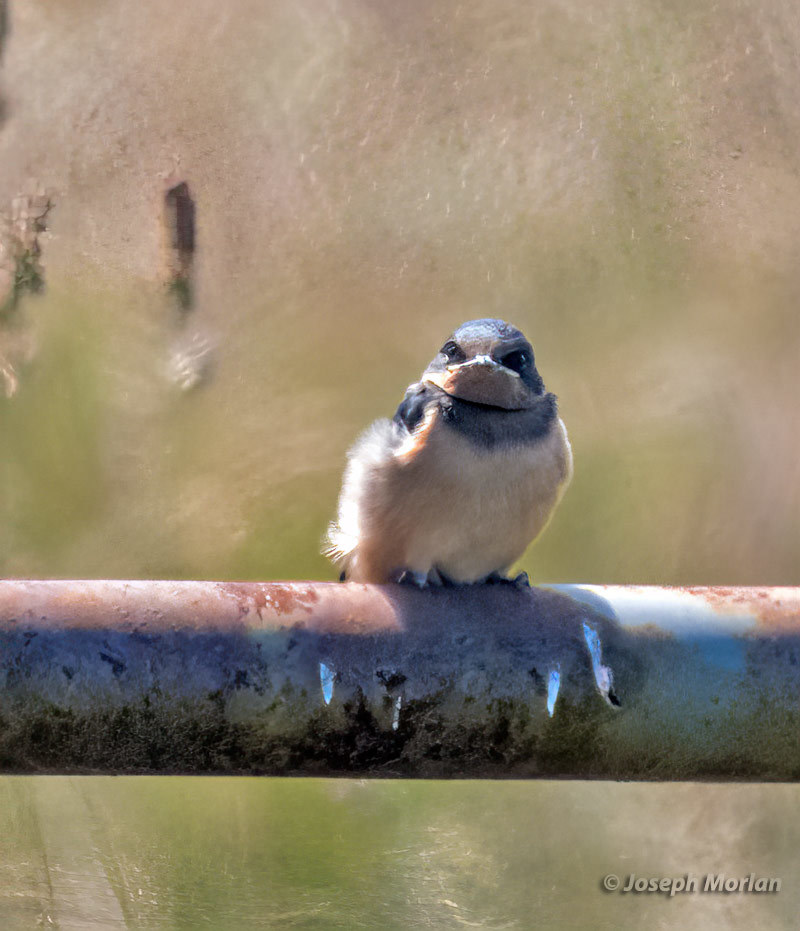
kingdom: Animalia
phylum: Chordata
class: Aves
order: Passeriformes
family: Hirundinidae
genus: Hirundo
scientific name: Hirundo rustica
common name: Barn swallow
